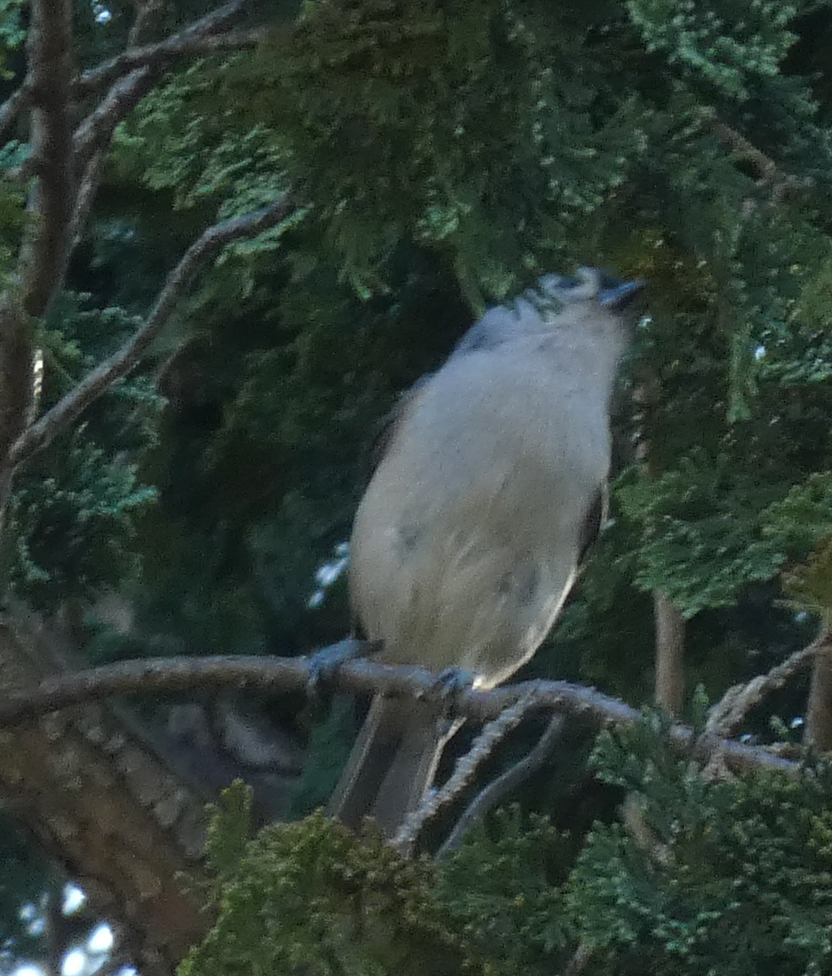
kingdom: Animalia
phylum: Chordata
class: Aves
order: Passeriformes
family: Paridae
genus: Baeolophus
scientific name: Baeolophus bicolor
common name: Tufted titmouse
